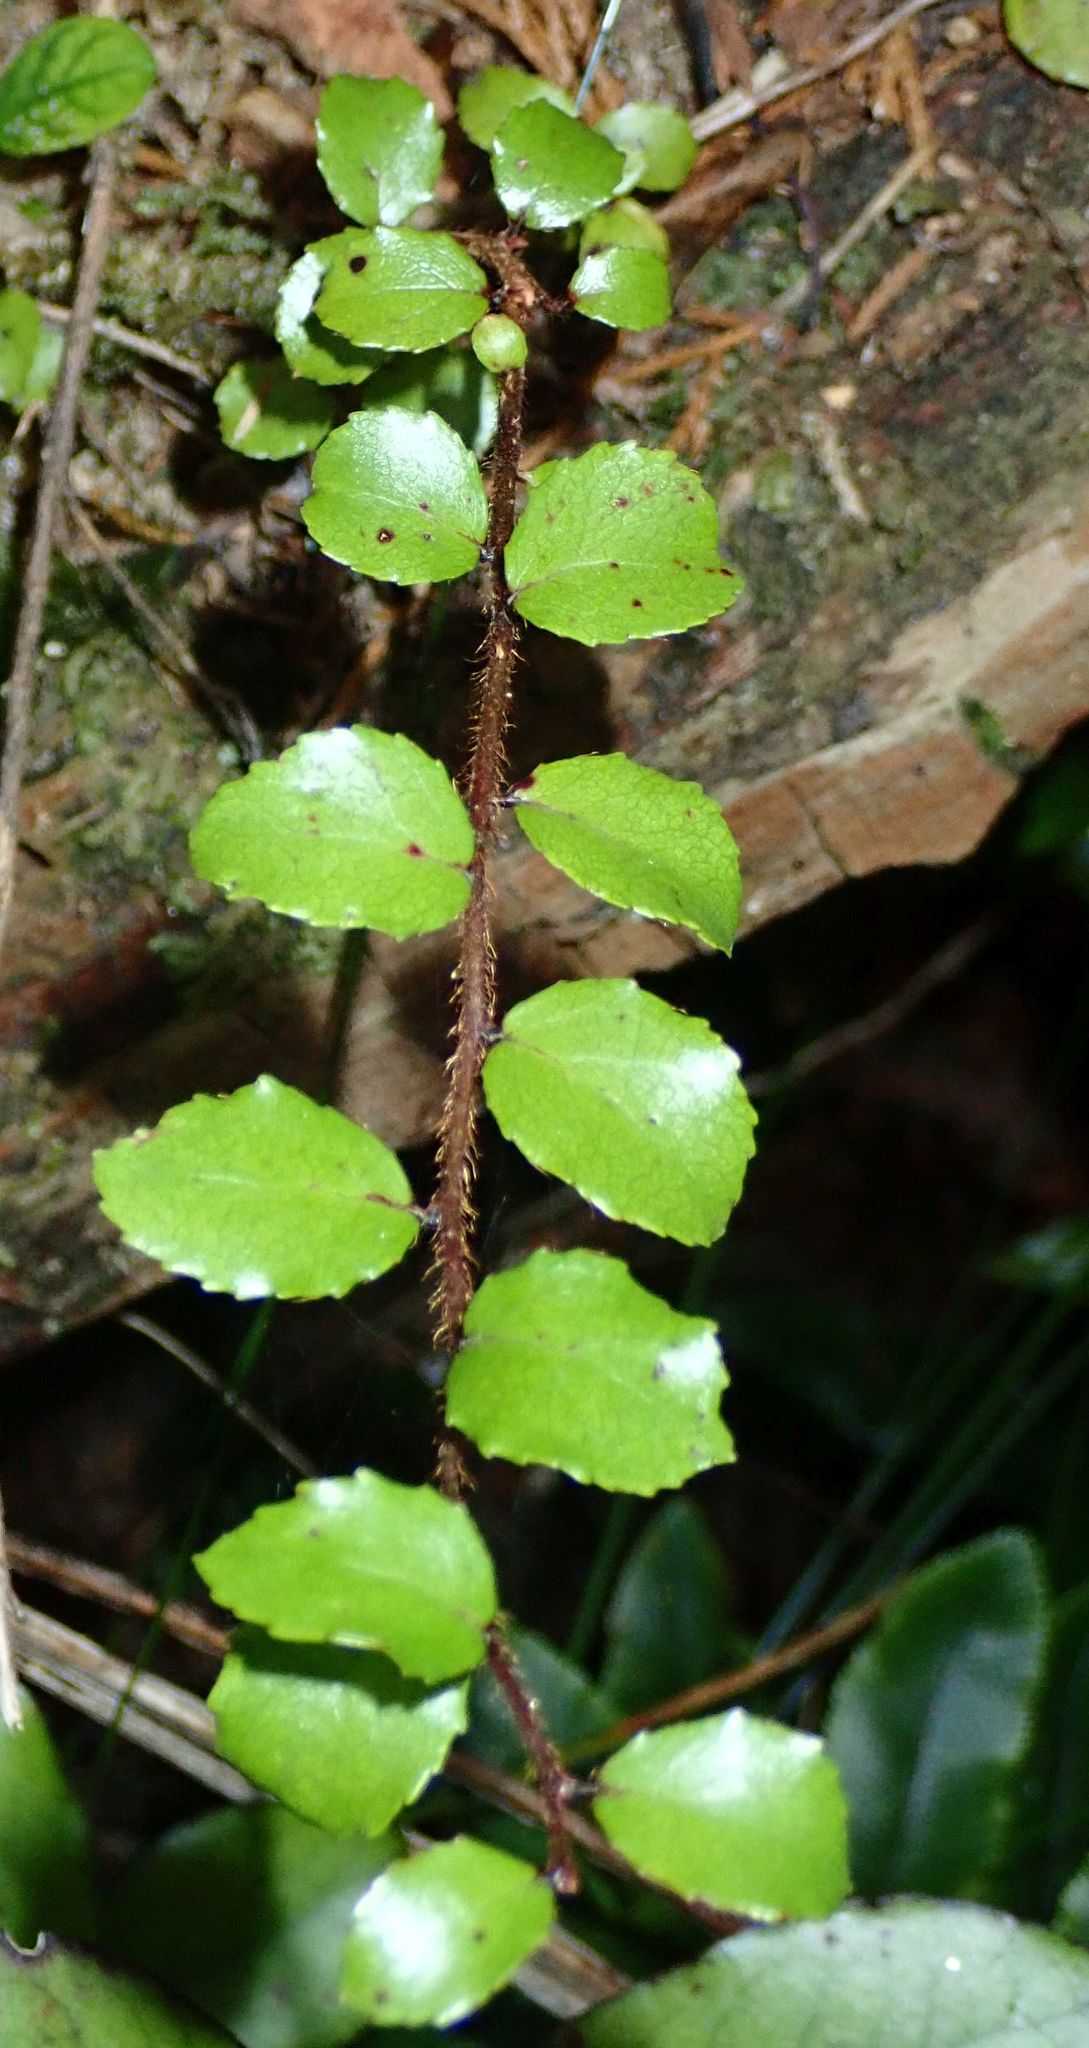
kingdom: Plantae
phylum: Tracheophyta
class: Magnoliopsida
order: Ericales
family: Ericaceae
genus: Gaultheria
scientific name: Gaultheria antipoda
